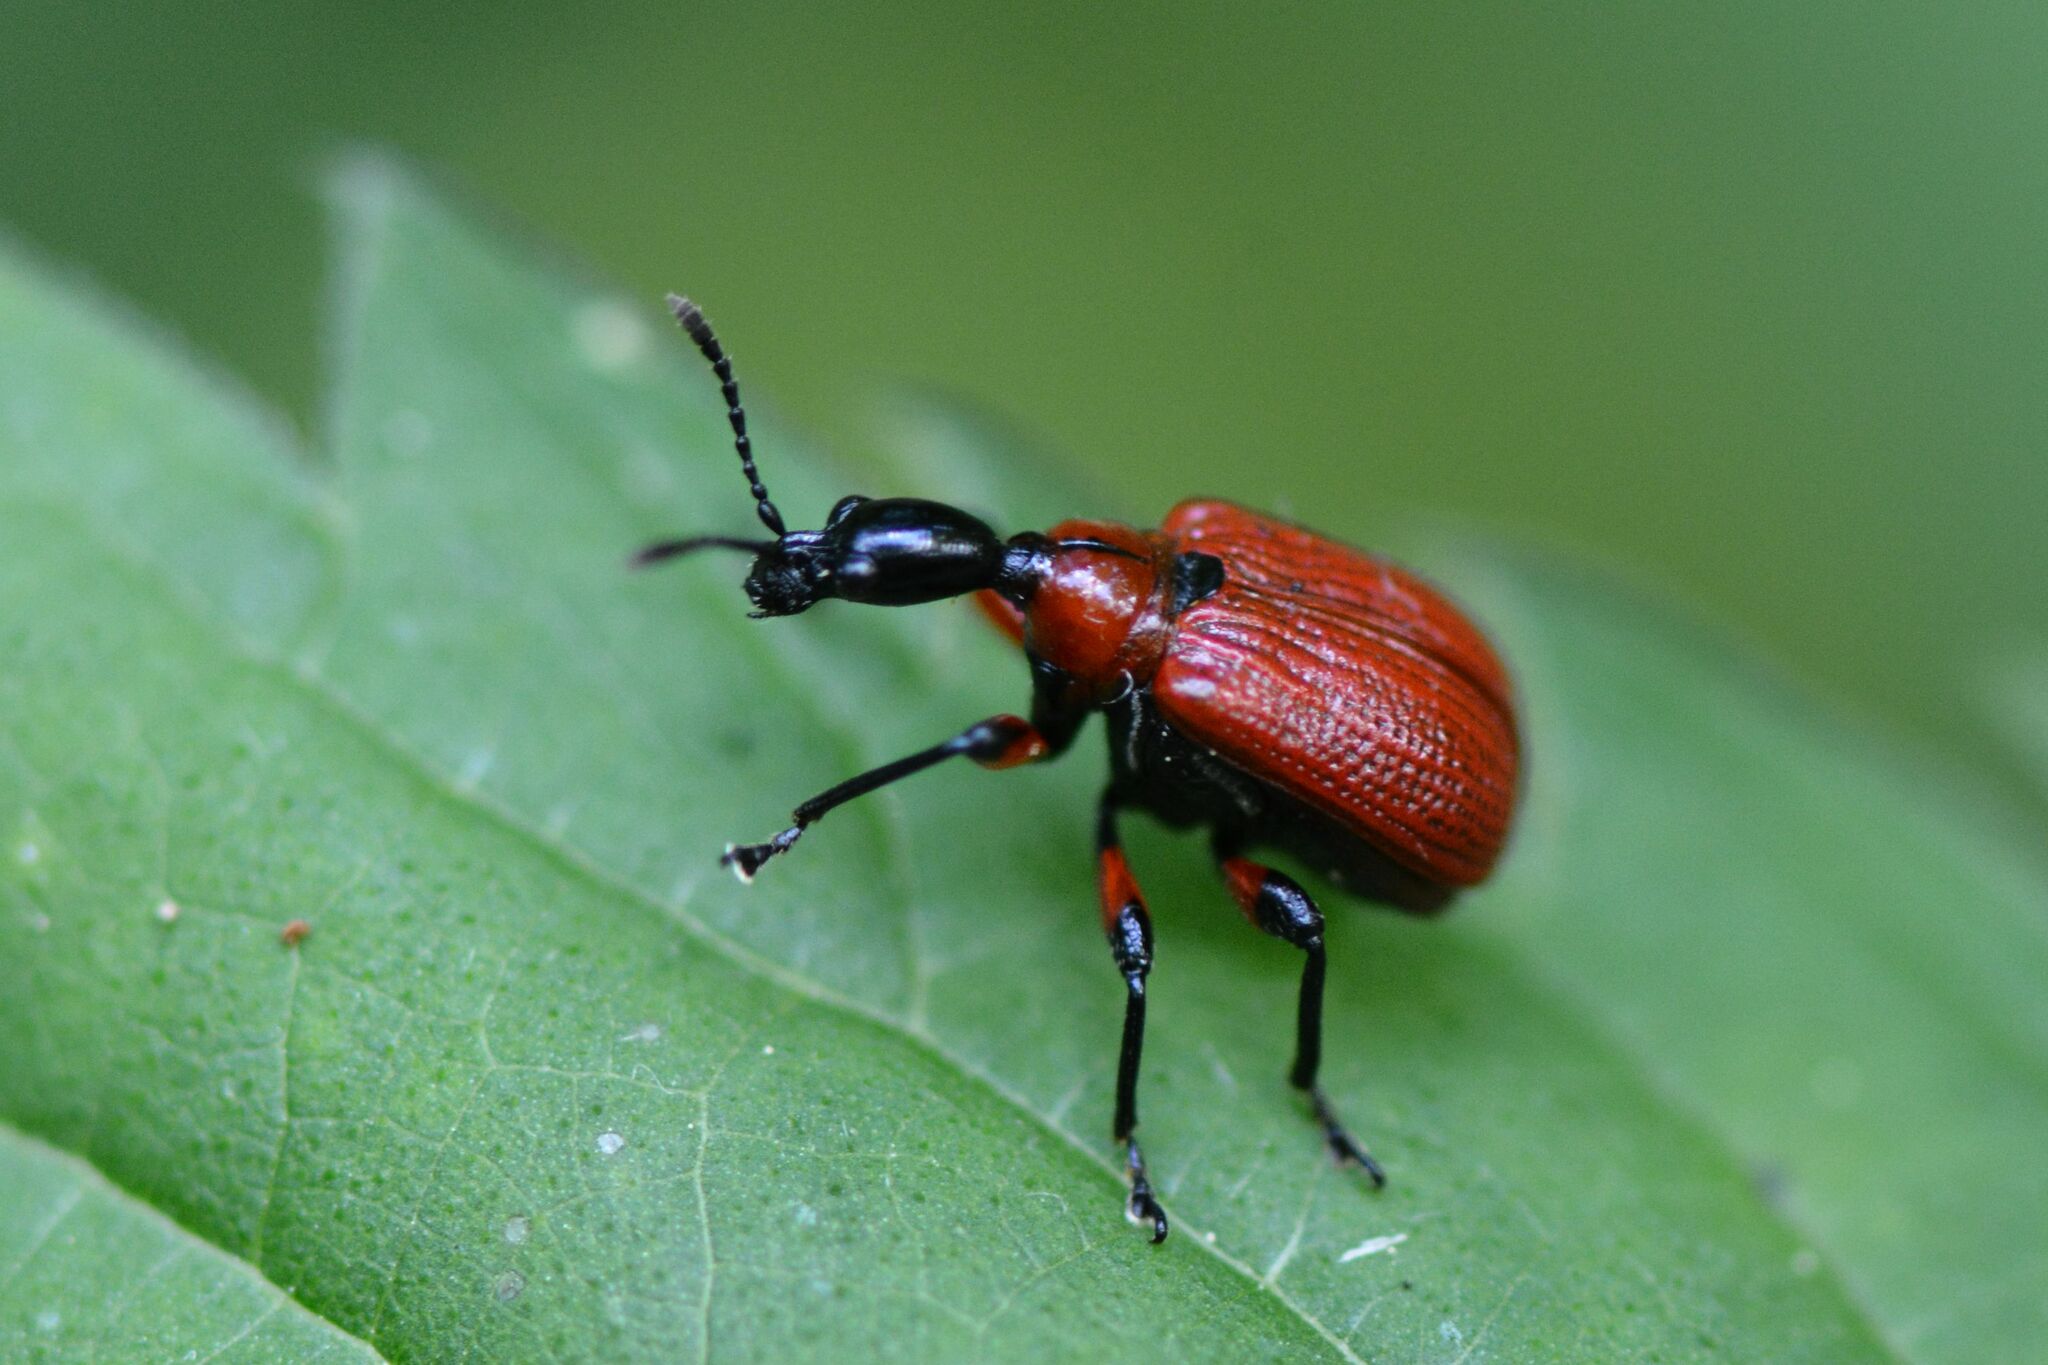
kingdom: Animalia
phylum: Arthropoda
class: Insecta
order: Coleoptera
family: Attelabidae
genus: Apoderus
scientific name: Apoderus coryli
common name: Hazel leaf roller
